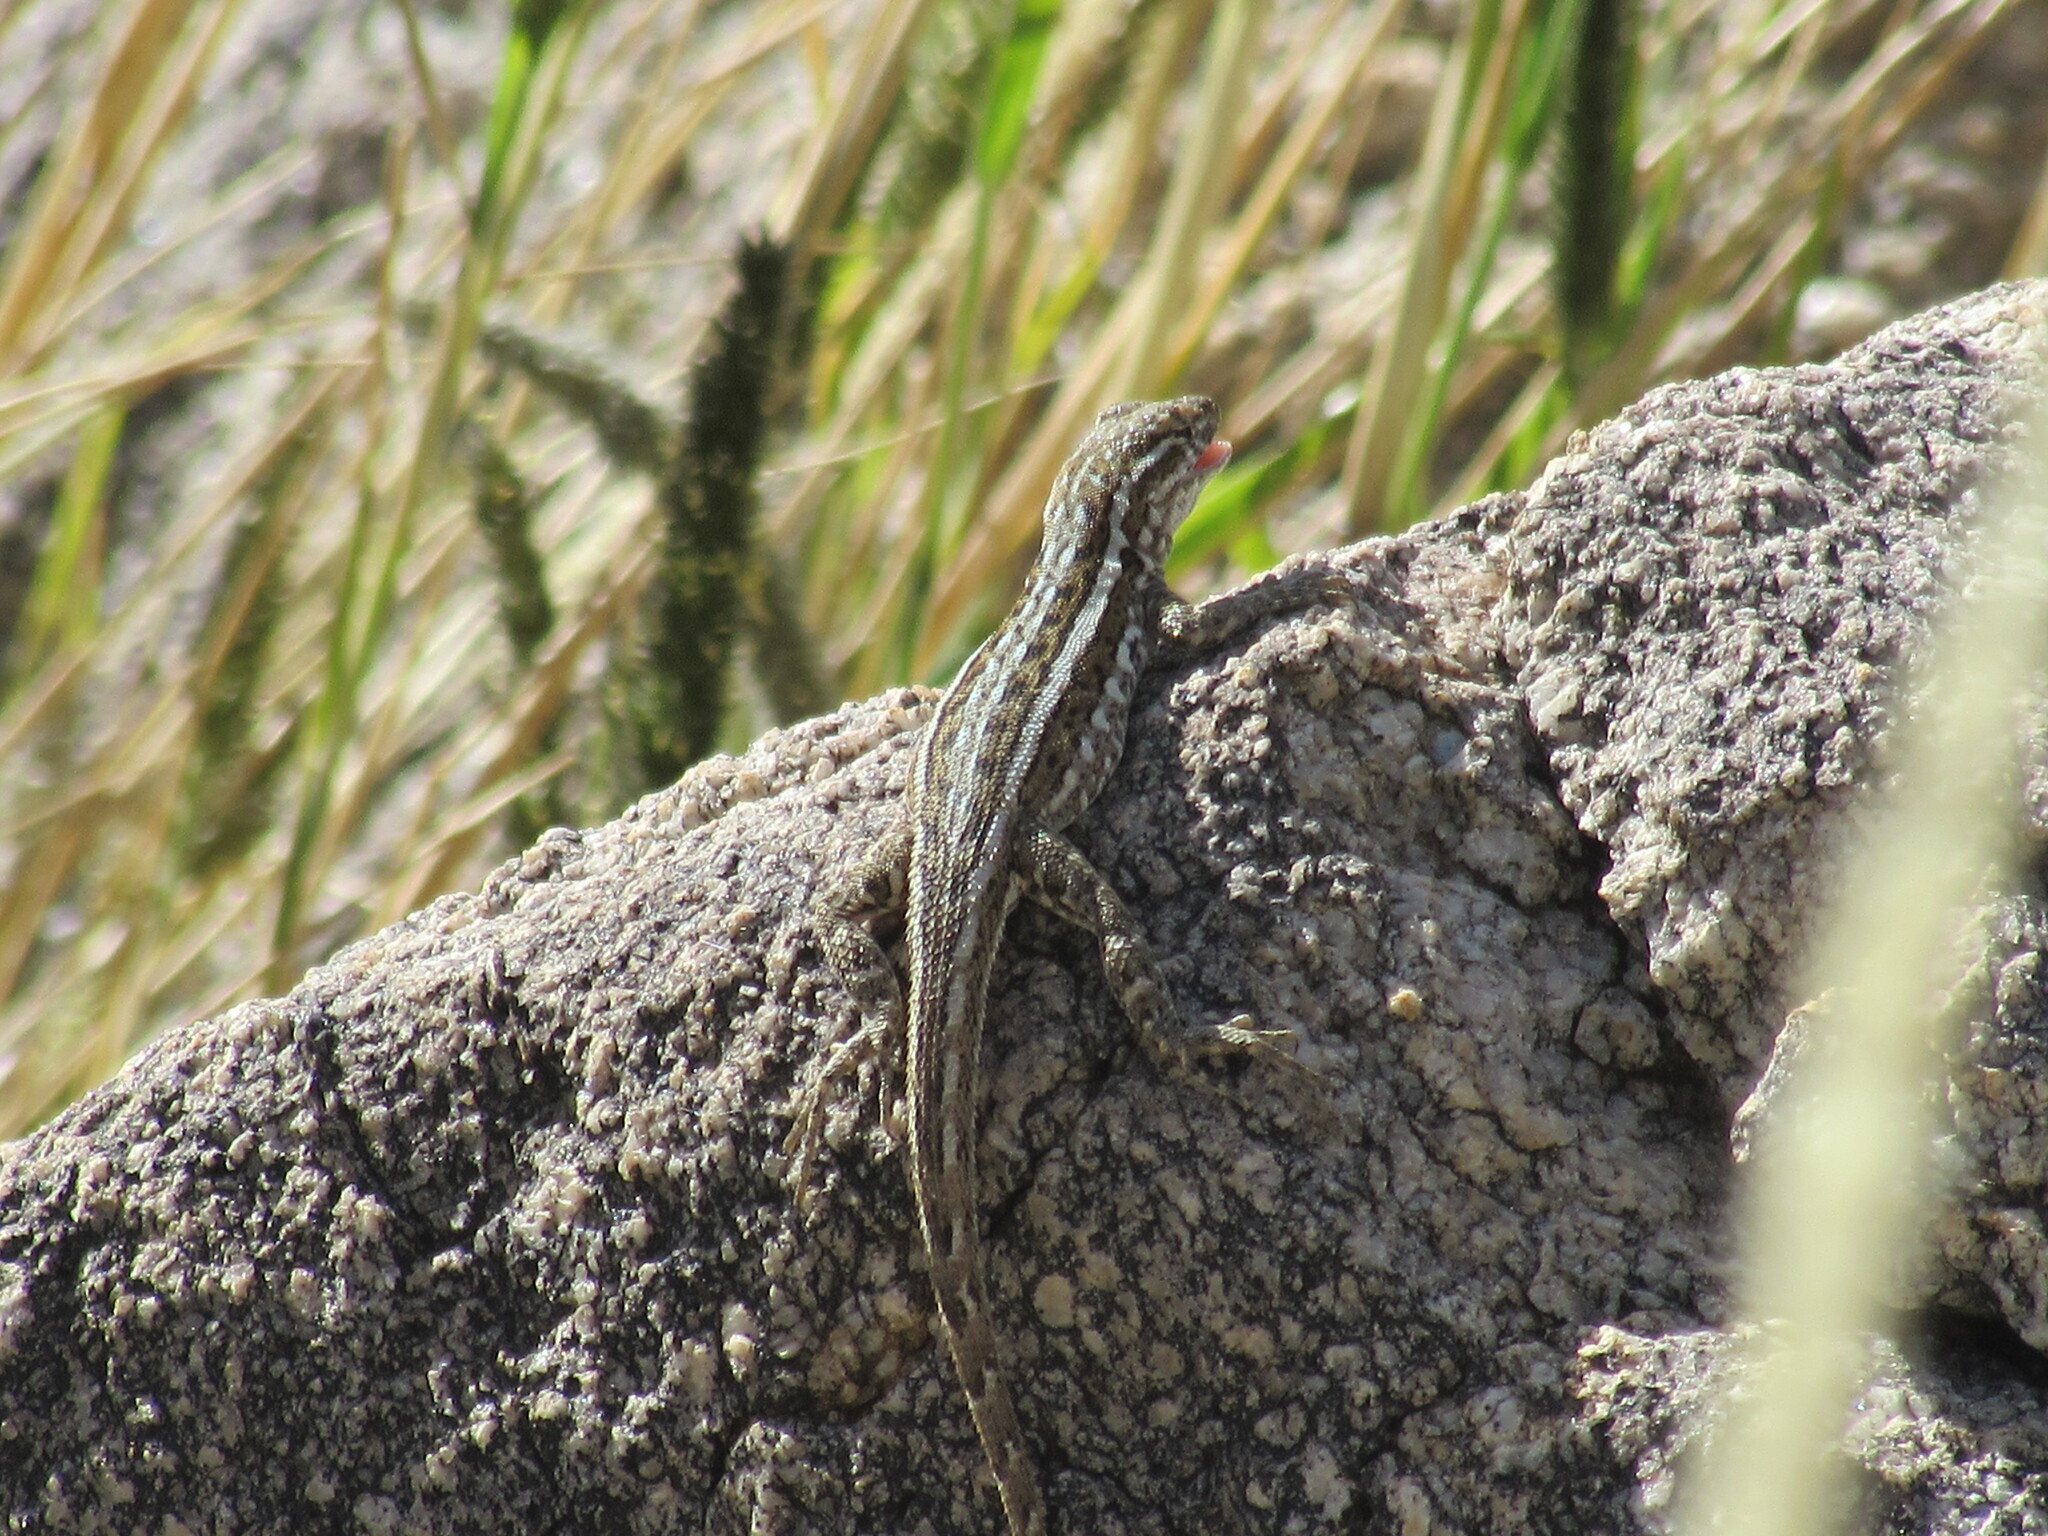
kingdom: Animalia
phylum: Chordata
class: Squamata
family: Phrynosomatidae
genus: Uta
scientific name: Uta stansburiana
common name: Side-blotched lizard
